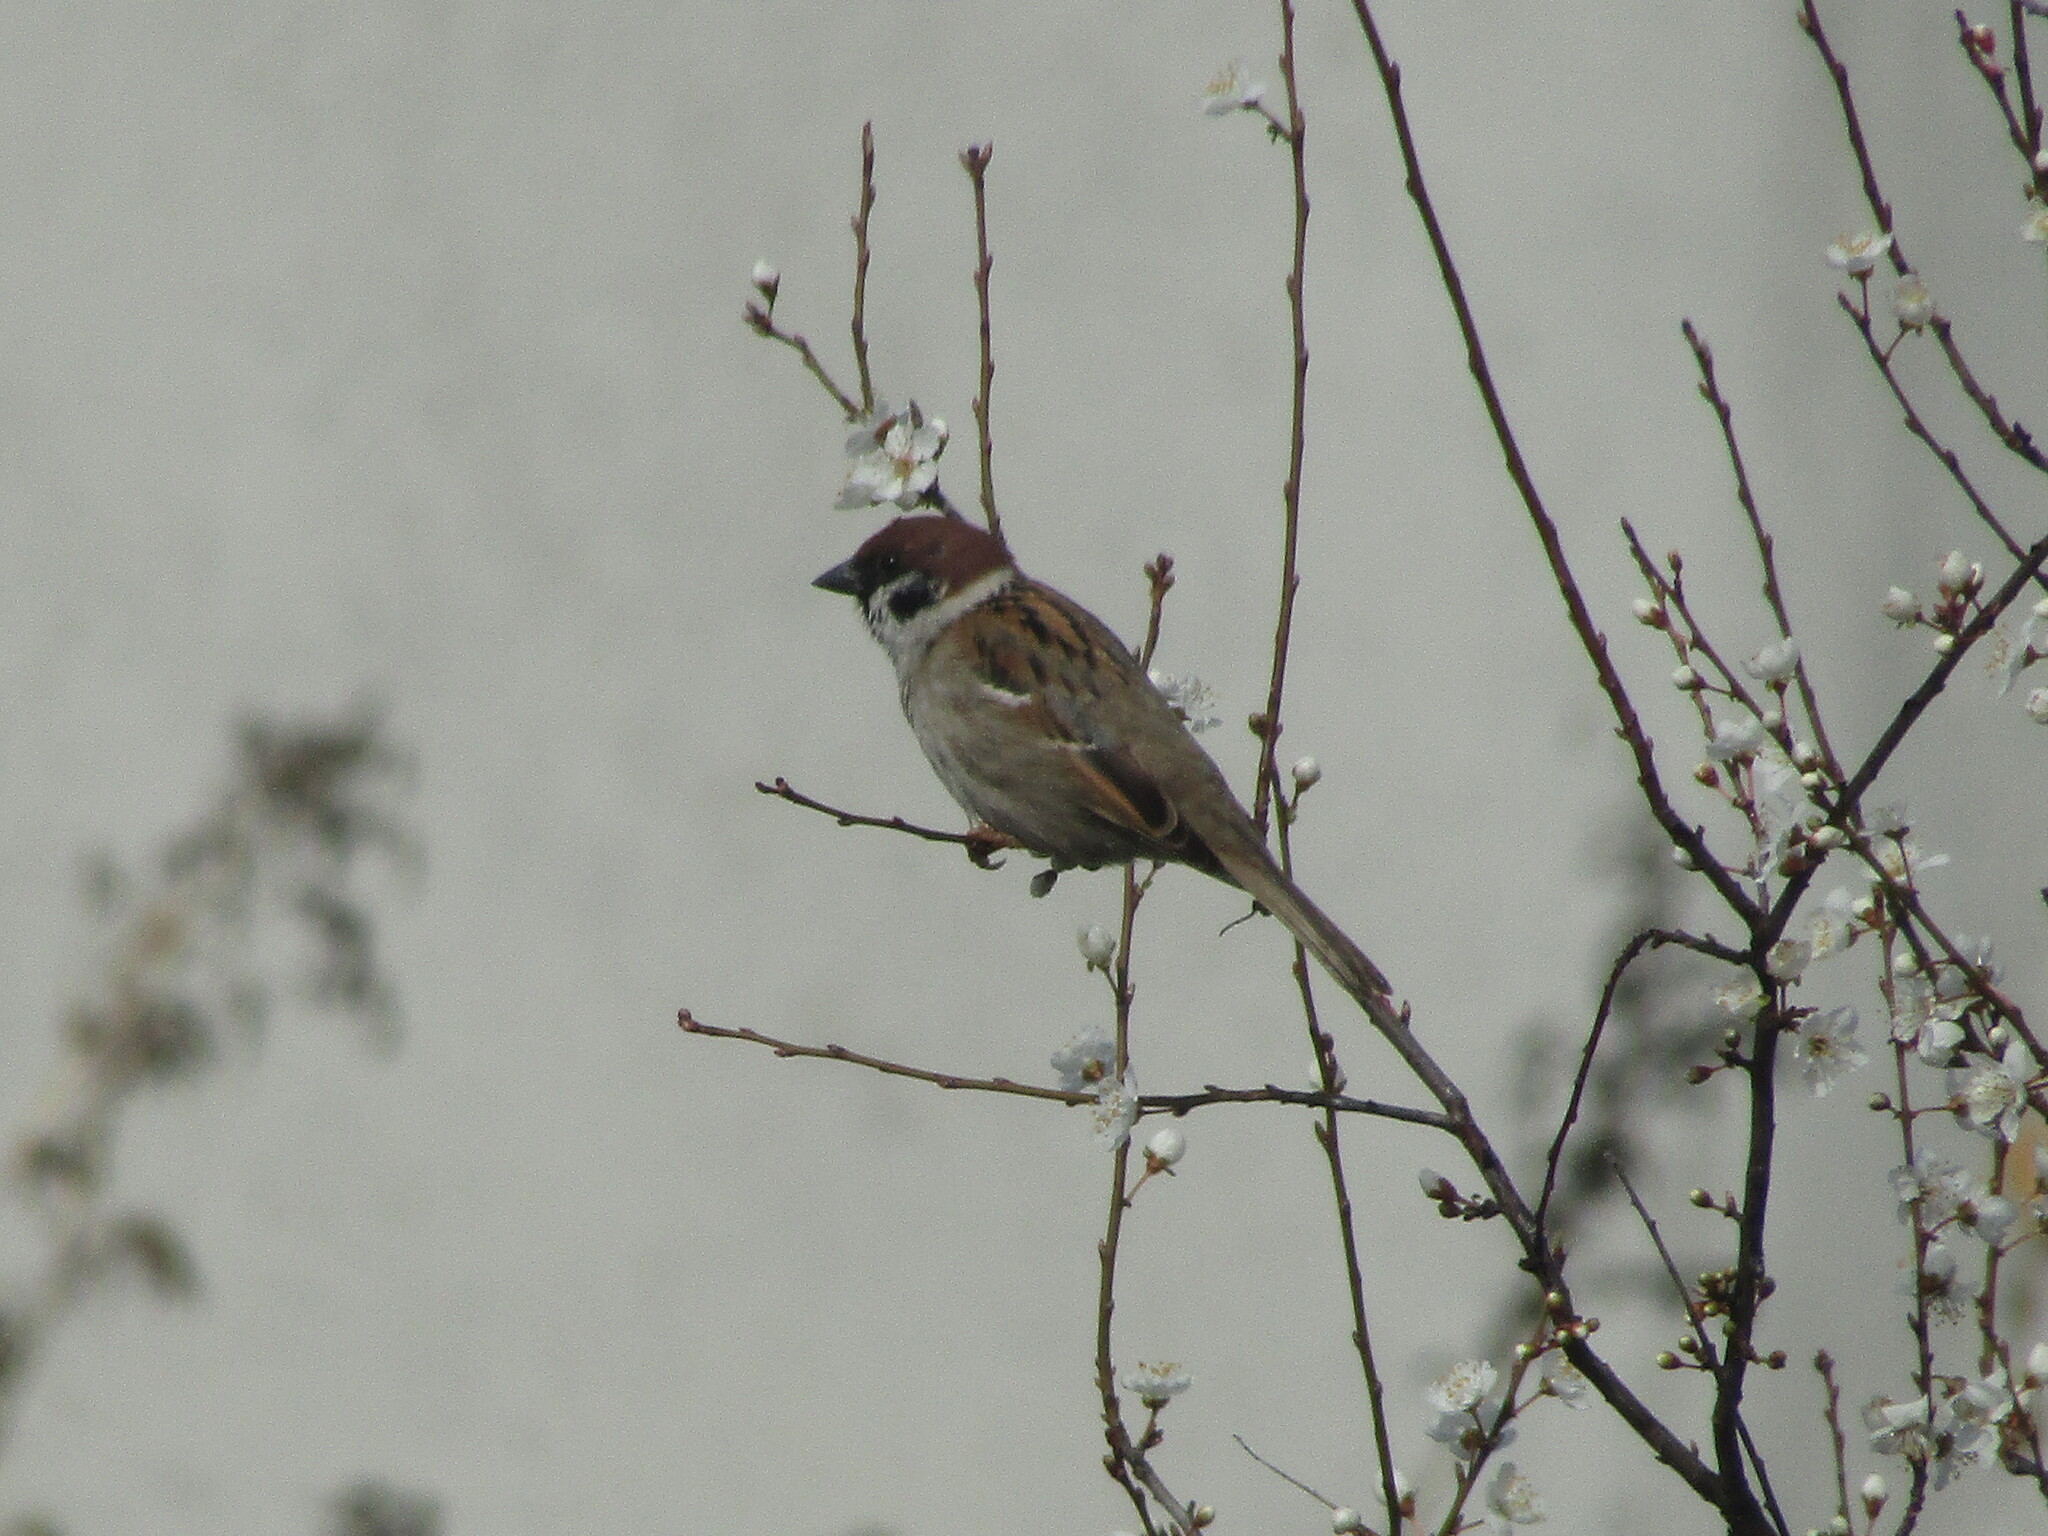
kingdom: Animalia
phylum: Chordata
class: Aves
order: Passeriformes
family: Passeridae
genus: Passer
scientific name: Passer montanus
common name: Eurasian tree sparrow
